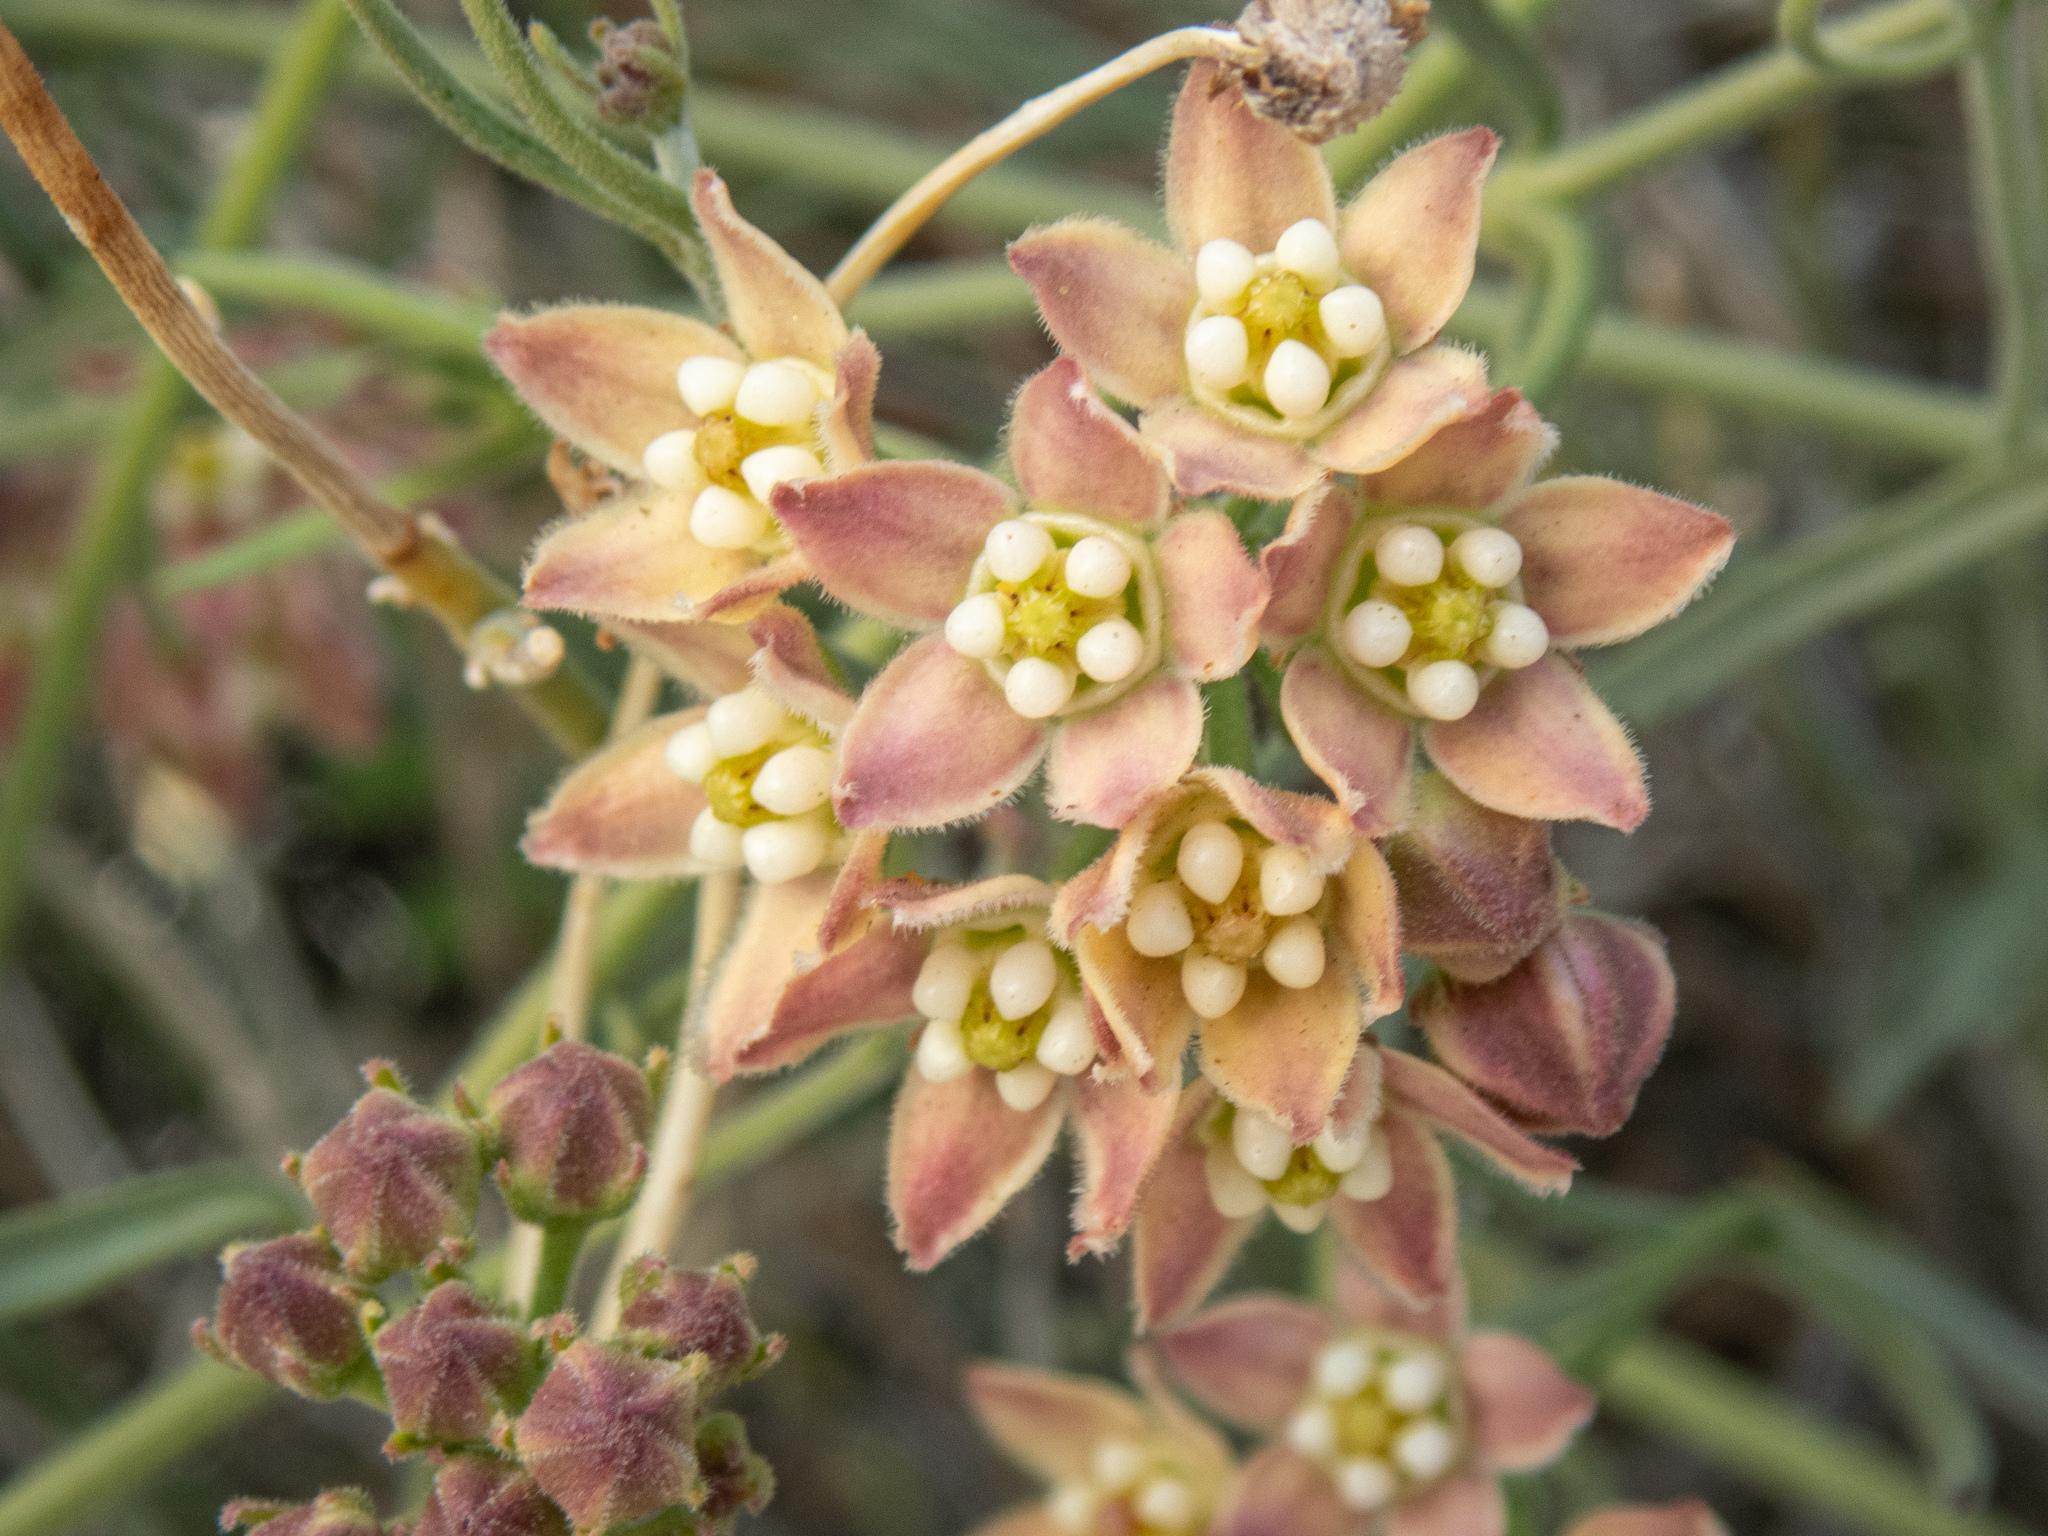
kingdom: Plantae
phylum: Tracheophyta
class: Magnoliopsida
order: Gentianales
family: Apocynaceae
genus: Funastrum
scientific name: Funastrum hirtellum
